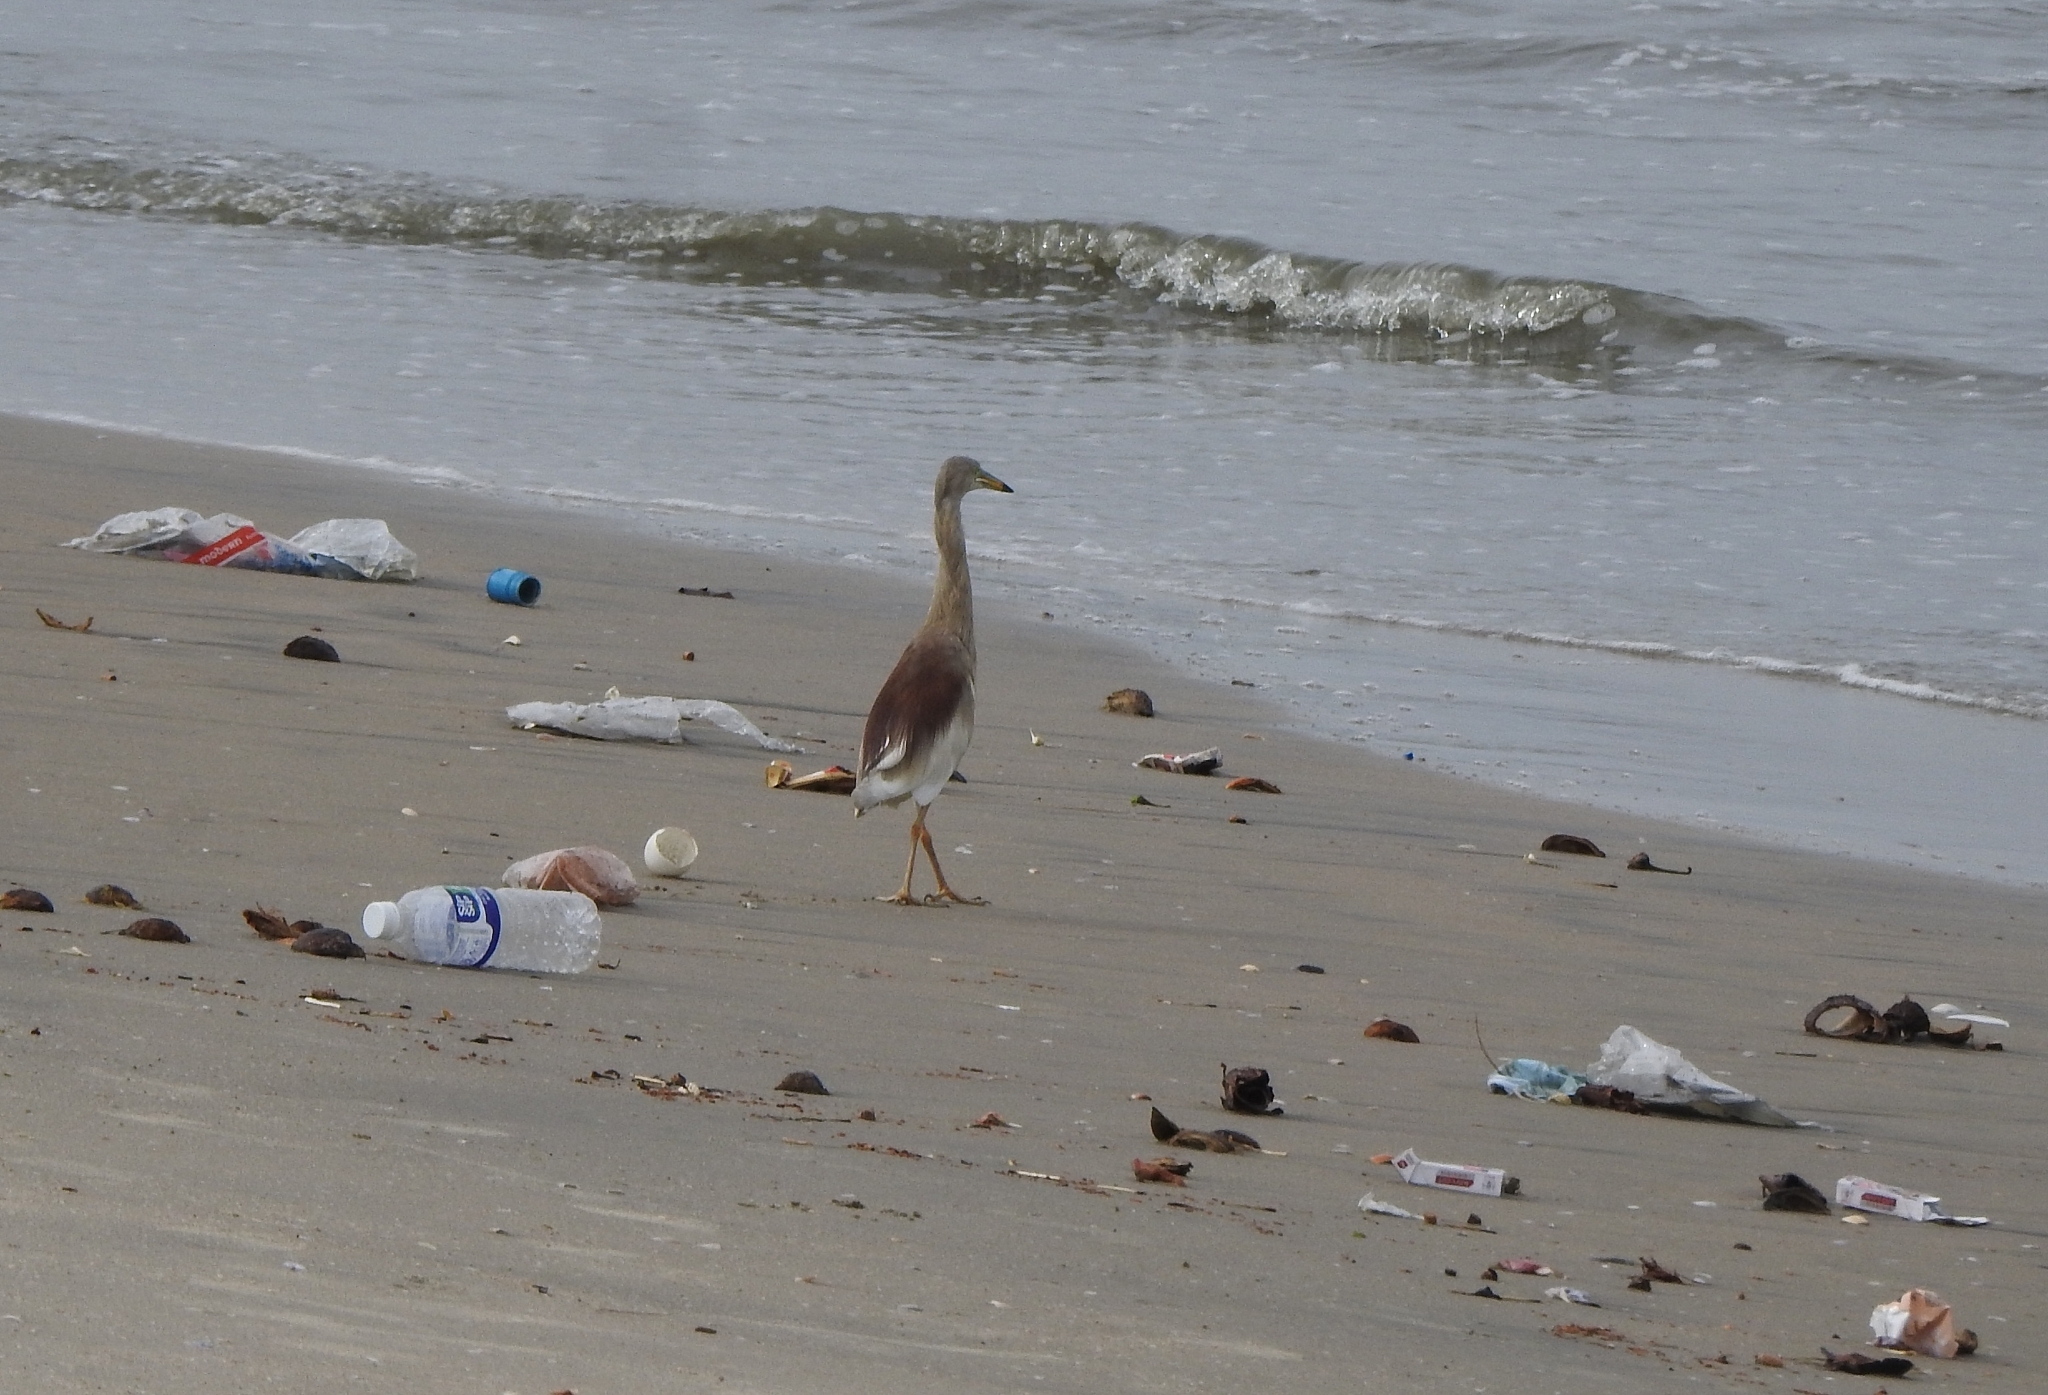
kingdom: Animalia
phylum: Chordata
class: Aves
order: Pelecaniformes
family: Ardeidae
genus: Ardeola
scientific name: Ardeola grayii
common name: Indian pond heron
